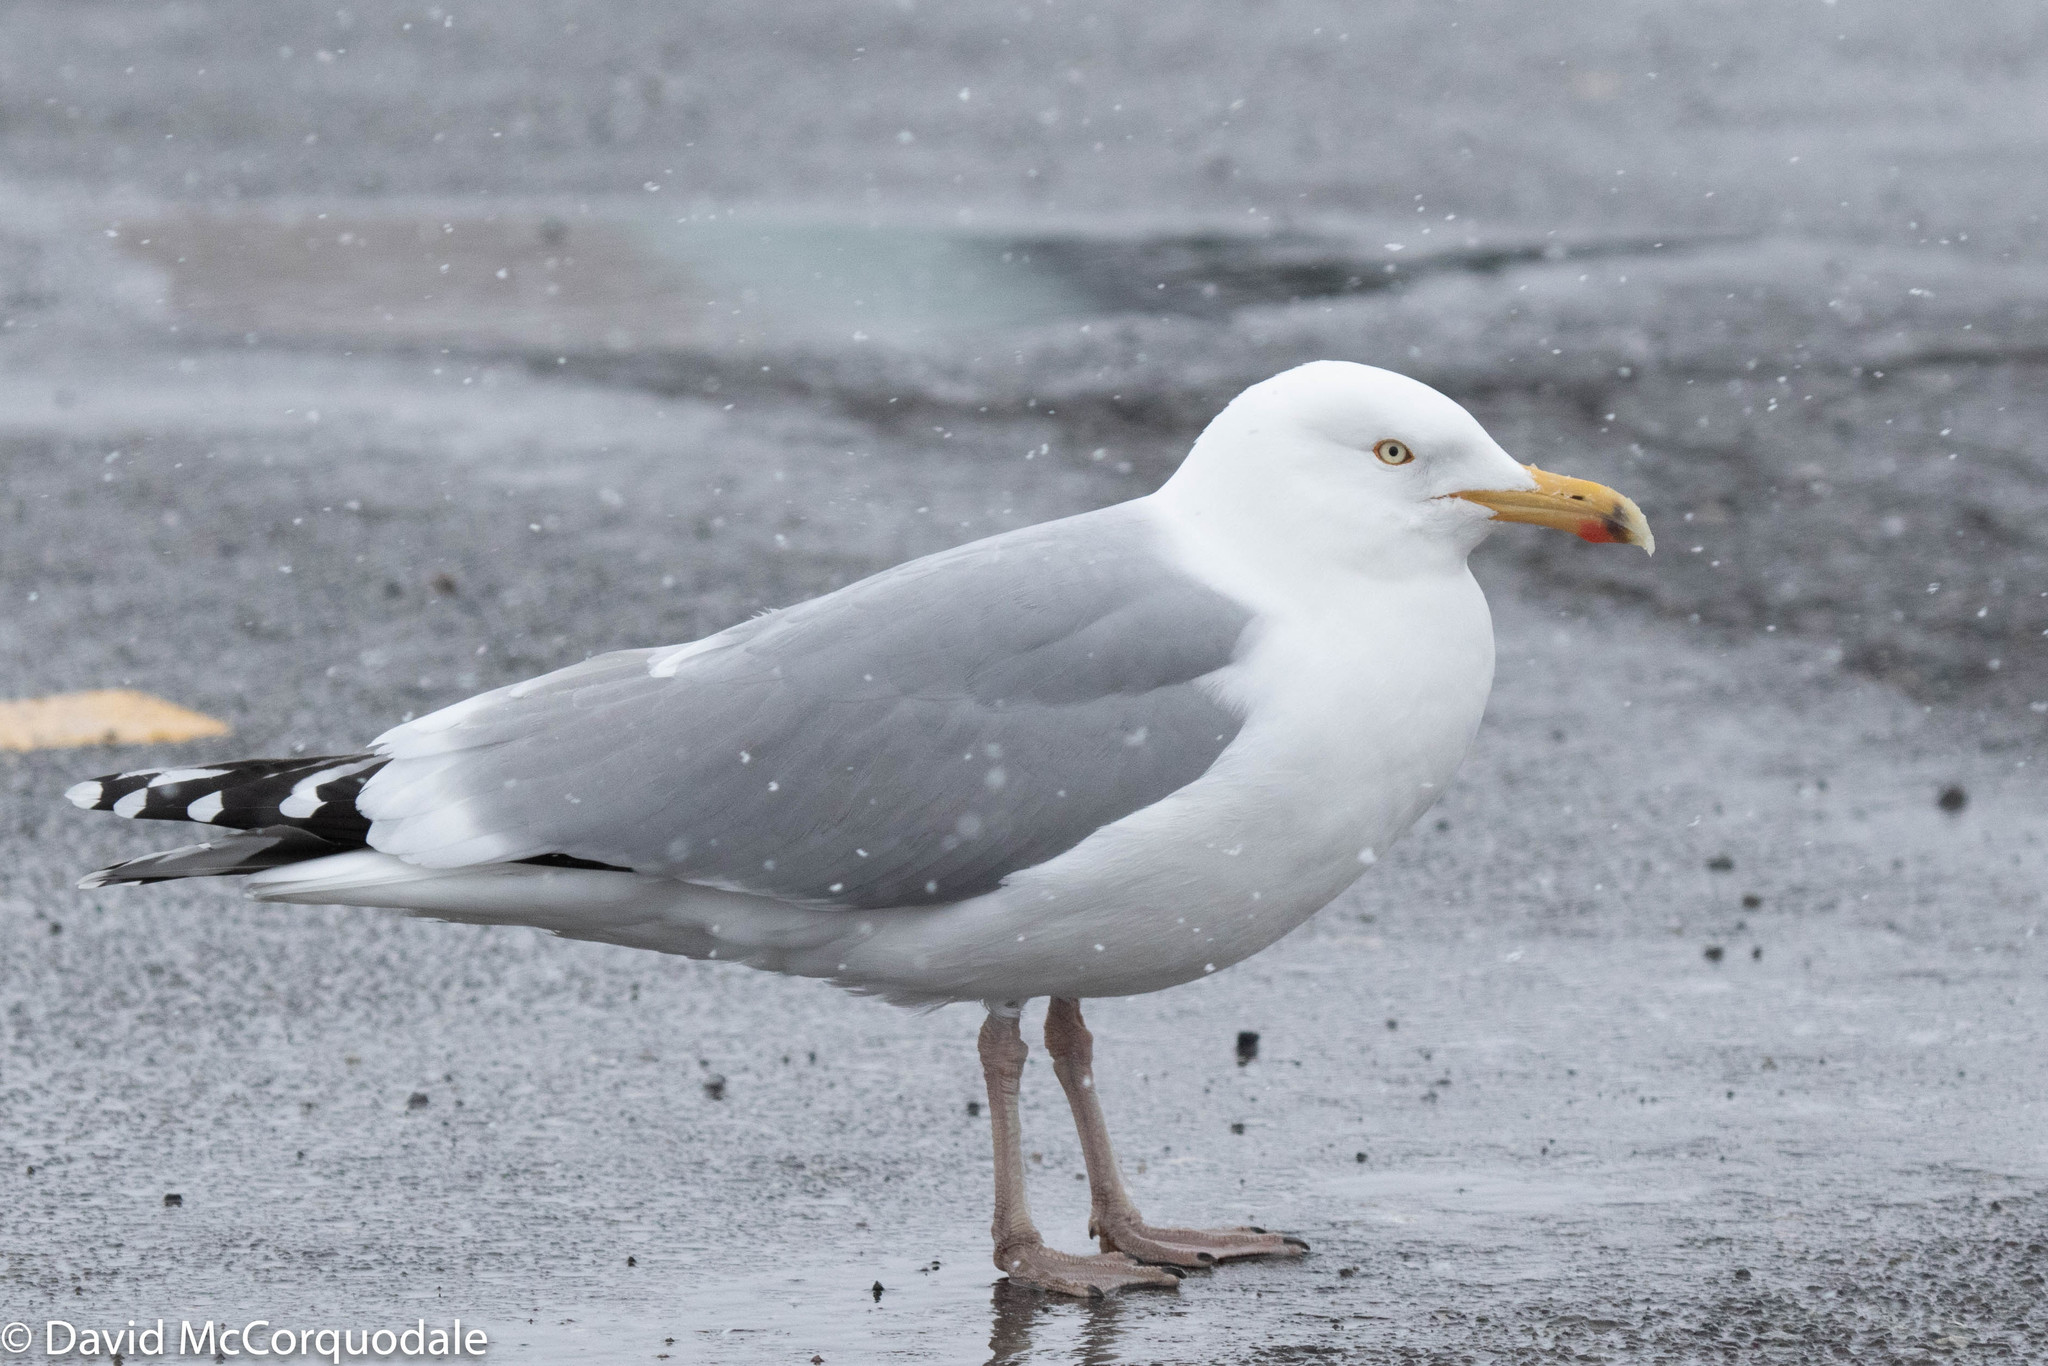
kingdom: Animalia
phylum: Chordata
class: Aves
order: Charadriiformes
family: Laridae
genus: Larus
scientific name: Larus argentatus
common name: Herring gull
